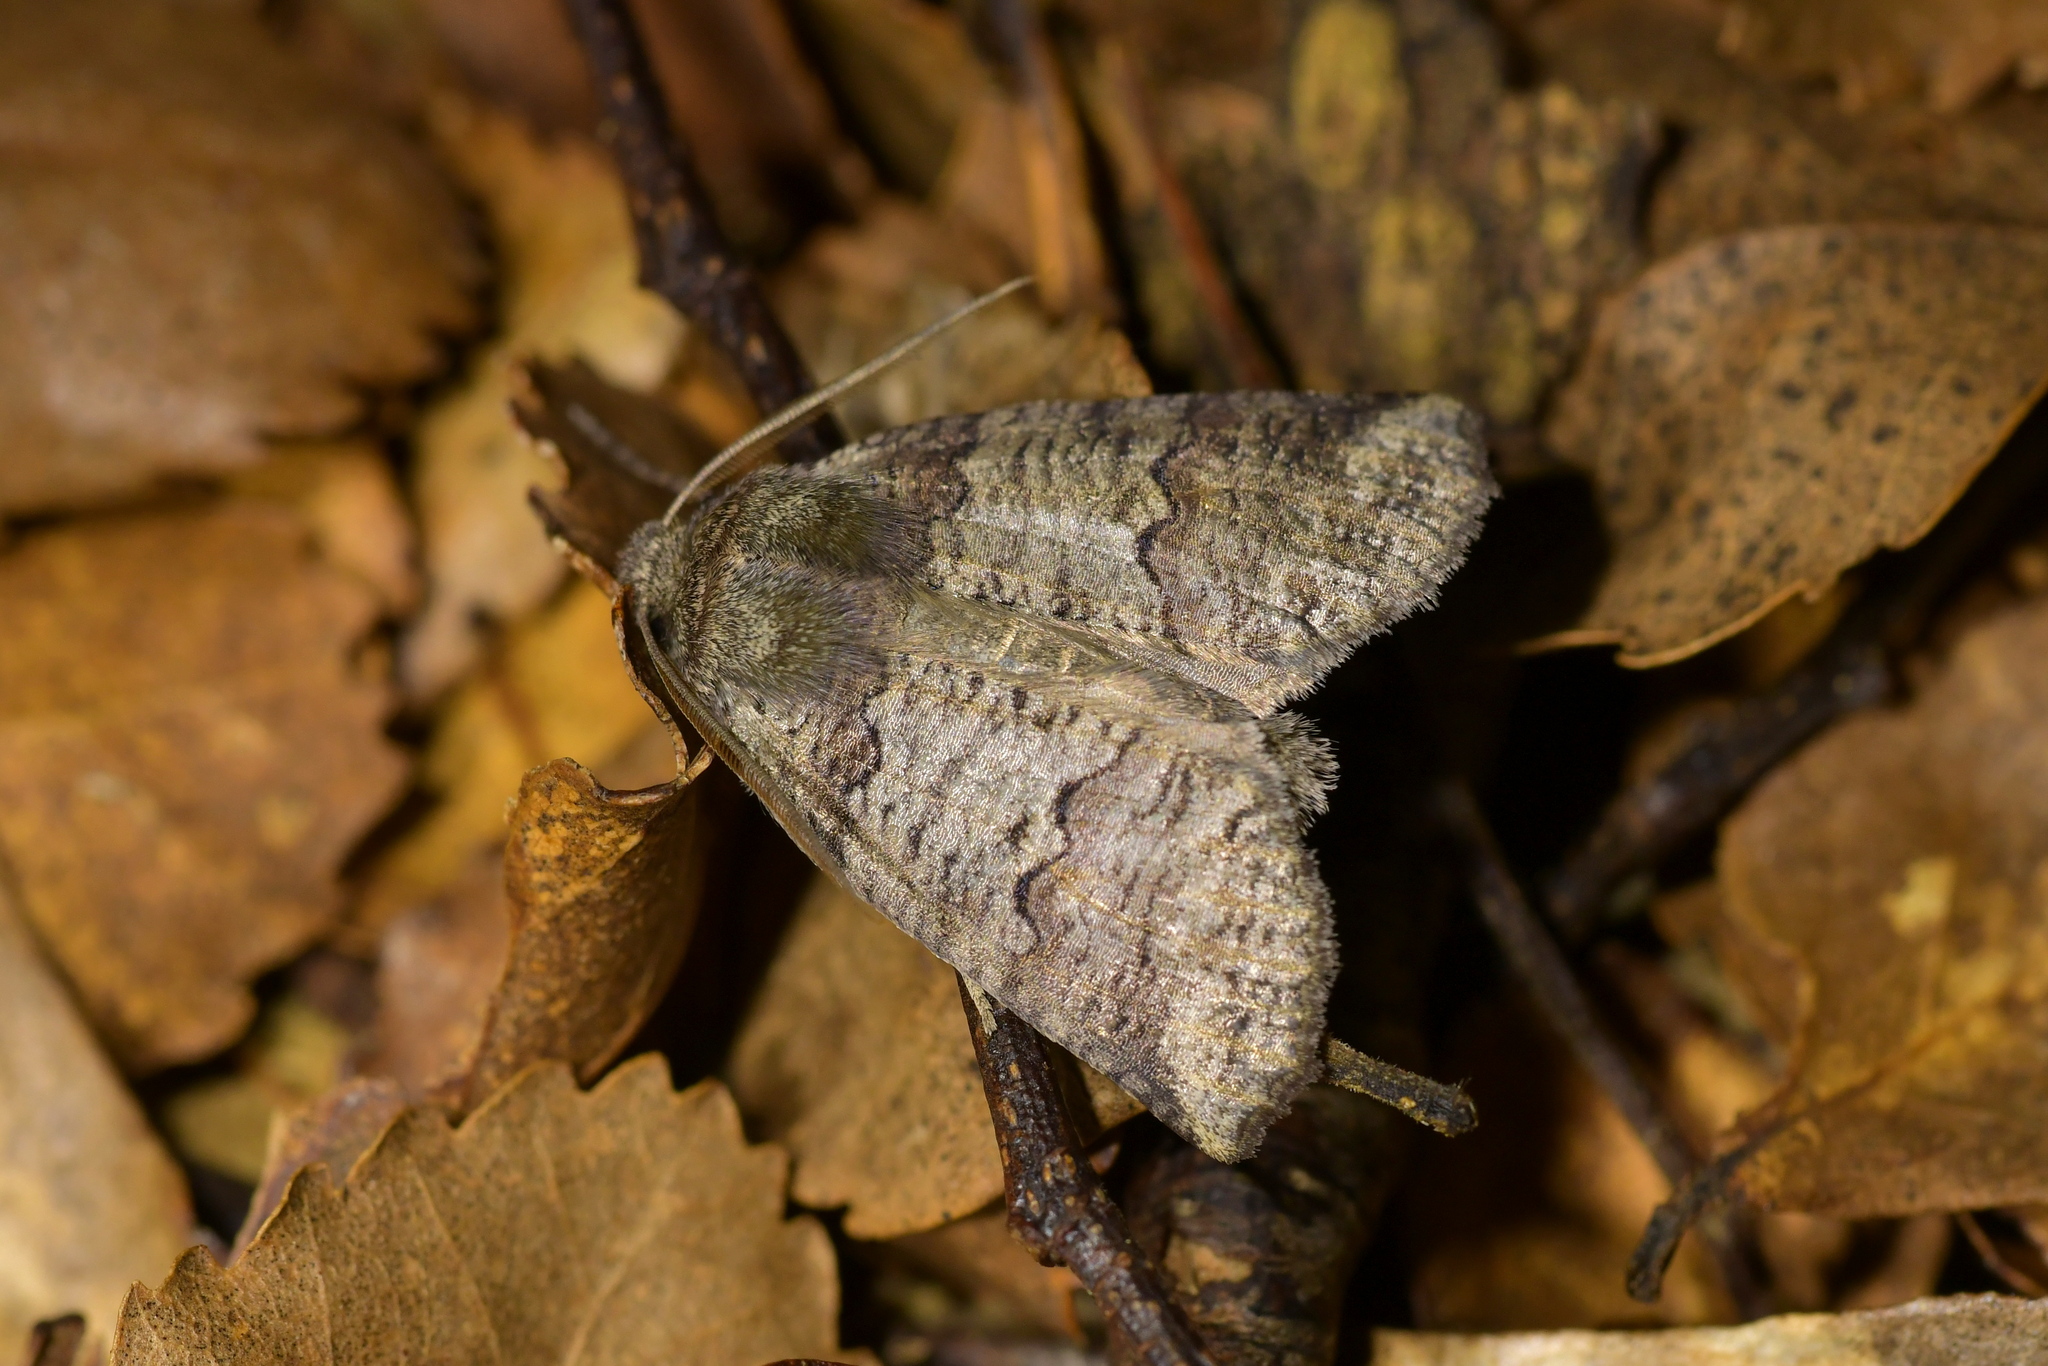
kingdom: Animalia
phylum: Arthropoda
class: Insecta
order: Lepidoptera
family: Geometridae
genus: Declana
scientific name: Declana
